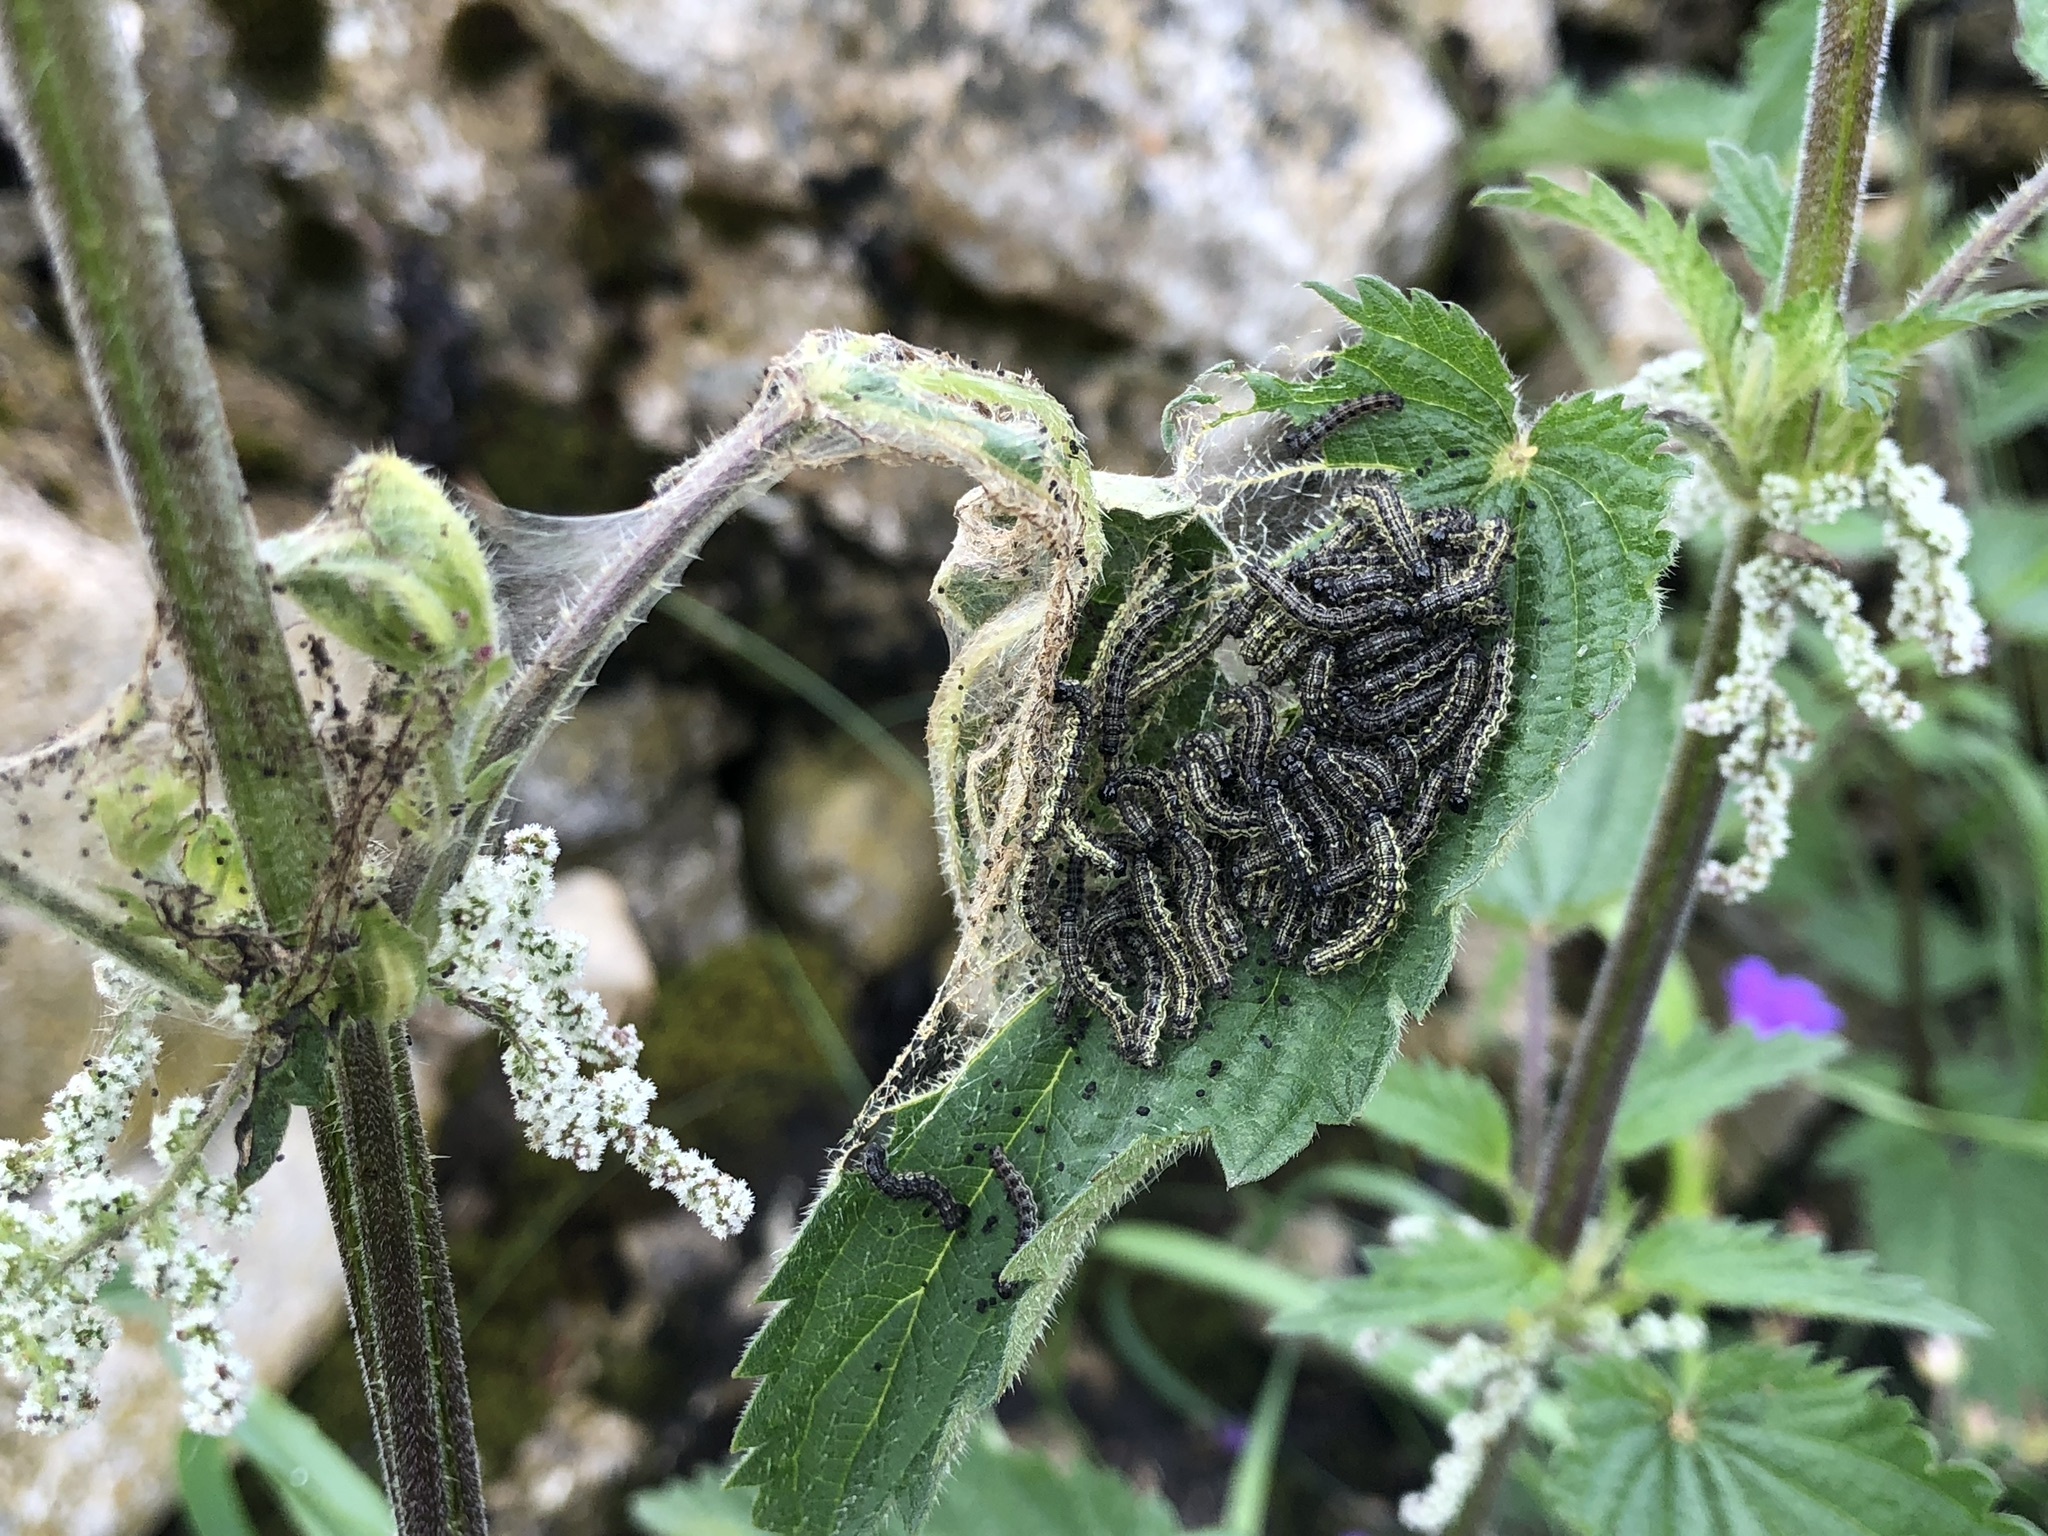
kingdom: Animalia
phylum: Arthropoda
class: Insecta
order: Lepidoptera
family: Nymphalidae
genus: Aglais
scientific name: Aglais urticae
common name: Small tortoiseshell
